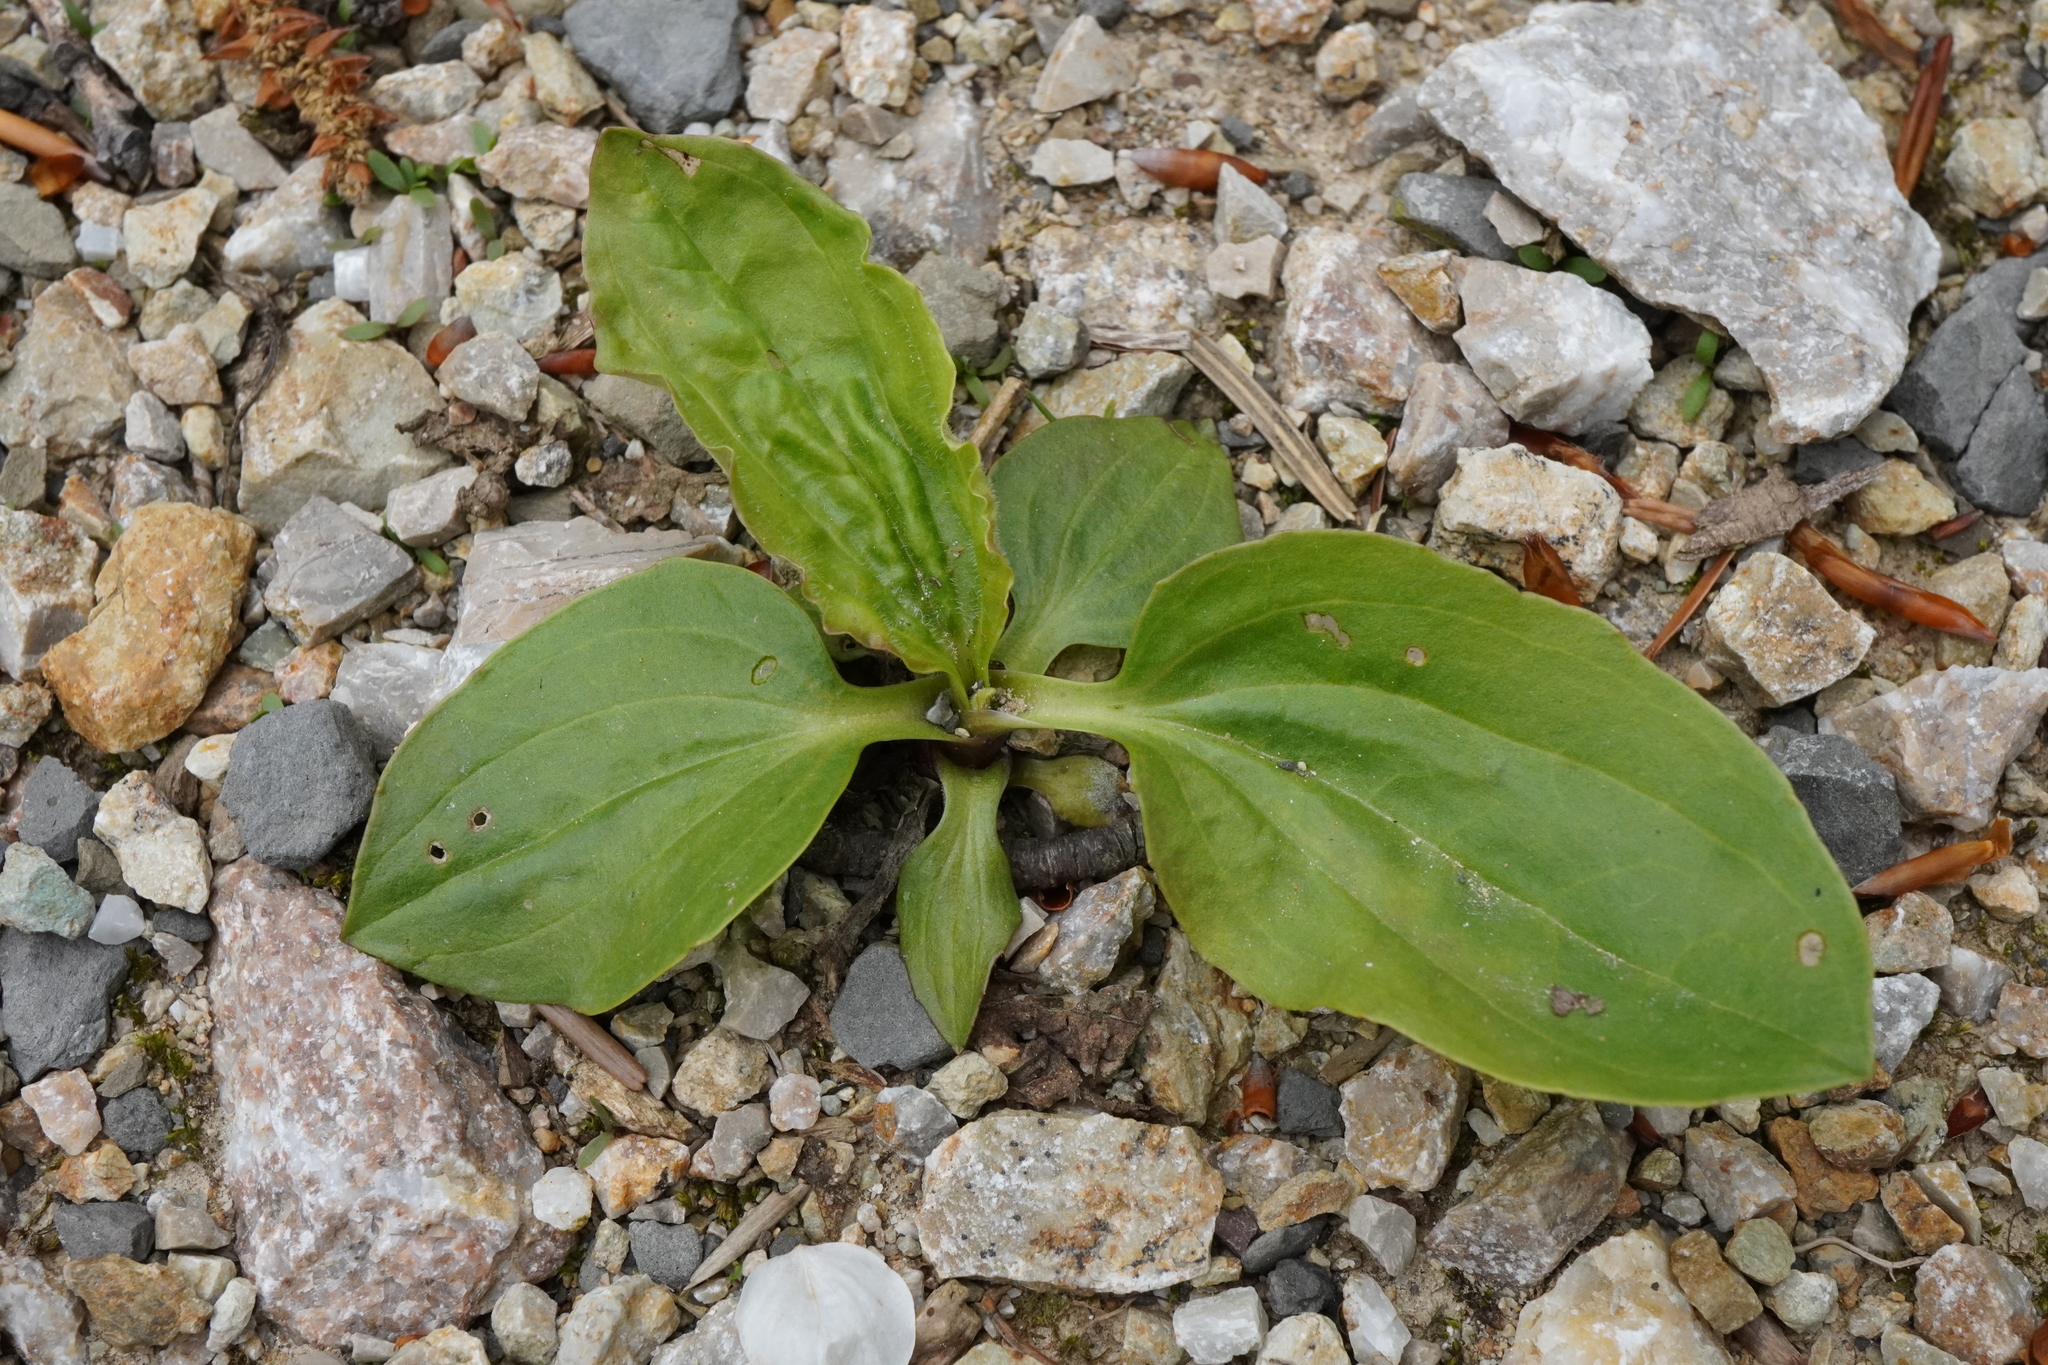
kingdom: Plantae
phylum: Tracheophyta
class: Magnoliopsida
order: Lamiales
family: Plantaginaceae
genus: Plantago
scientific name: Plantago major
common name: Common plantain
